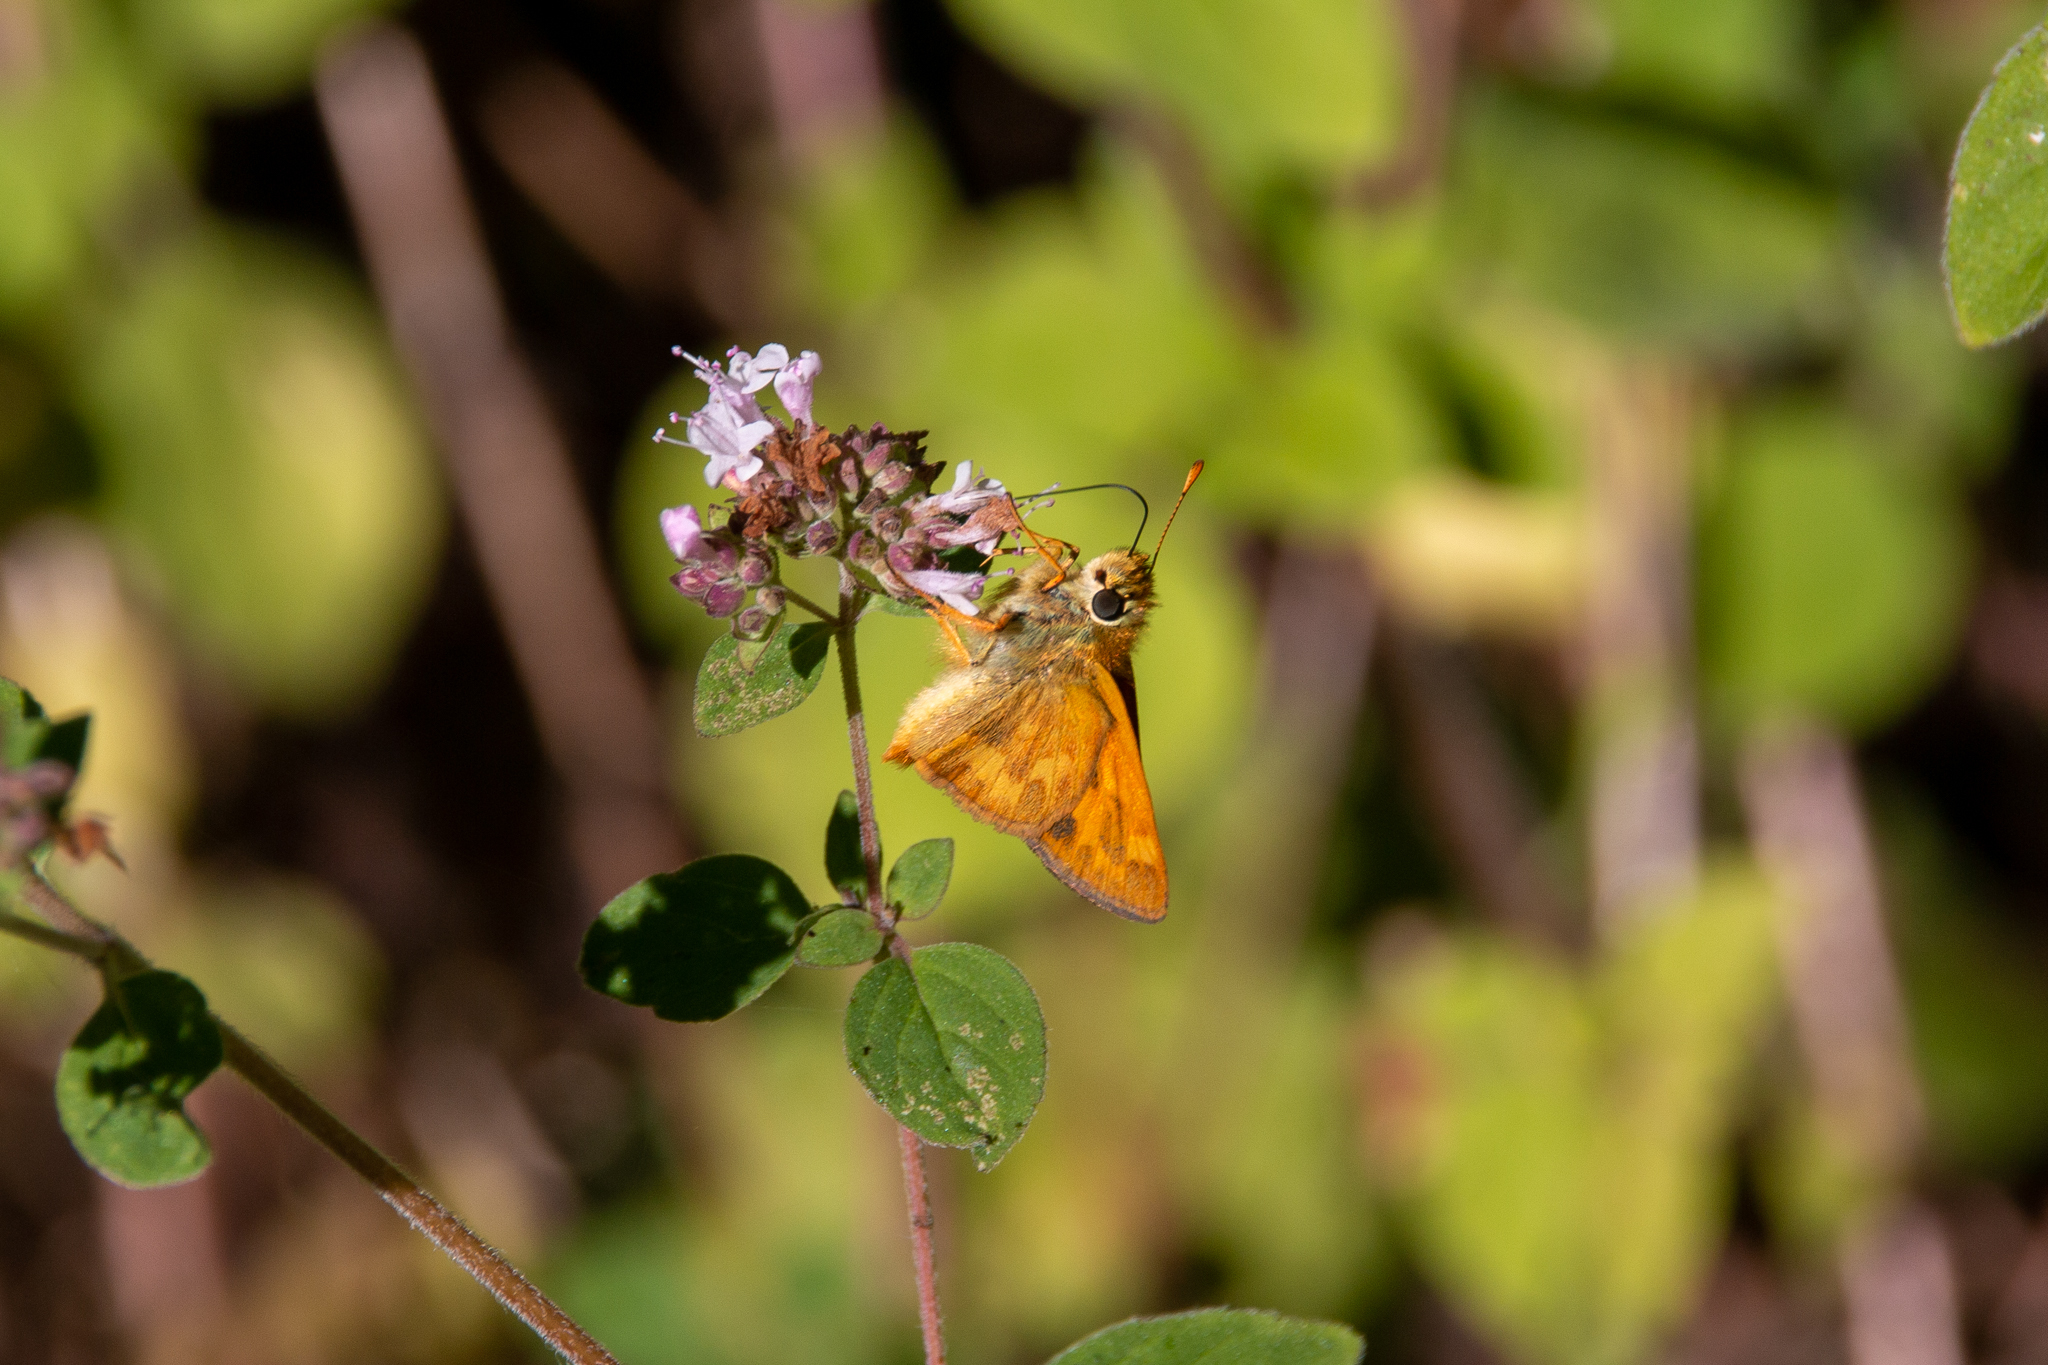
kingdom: Animalia
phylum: Arthropoda
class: Insecta
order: Lepidoptera
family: Hesperiidae
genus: Ochlodes
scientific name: Ochlodes sylvanoides
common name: Woodland skipper
